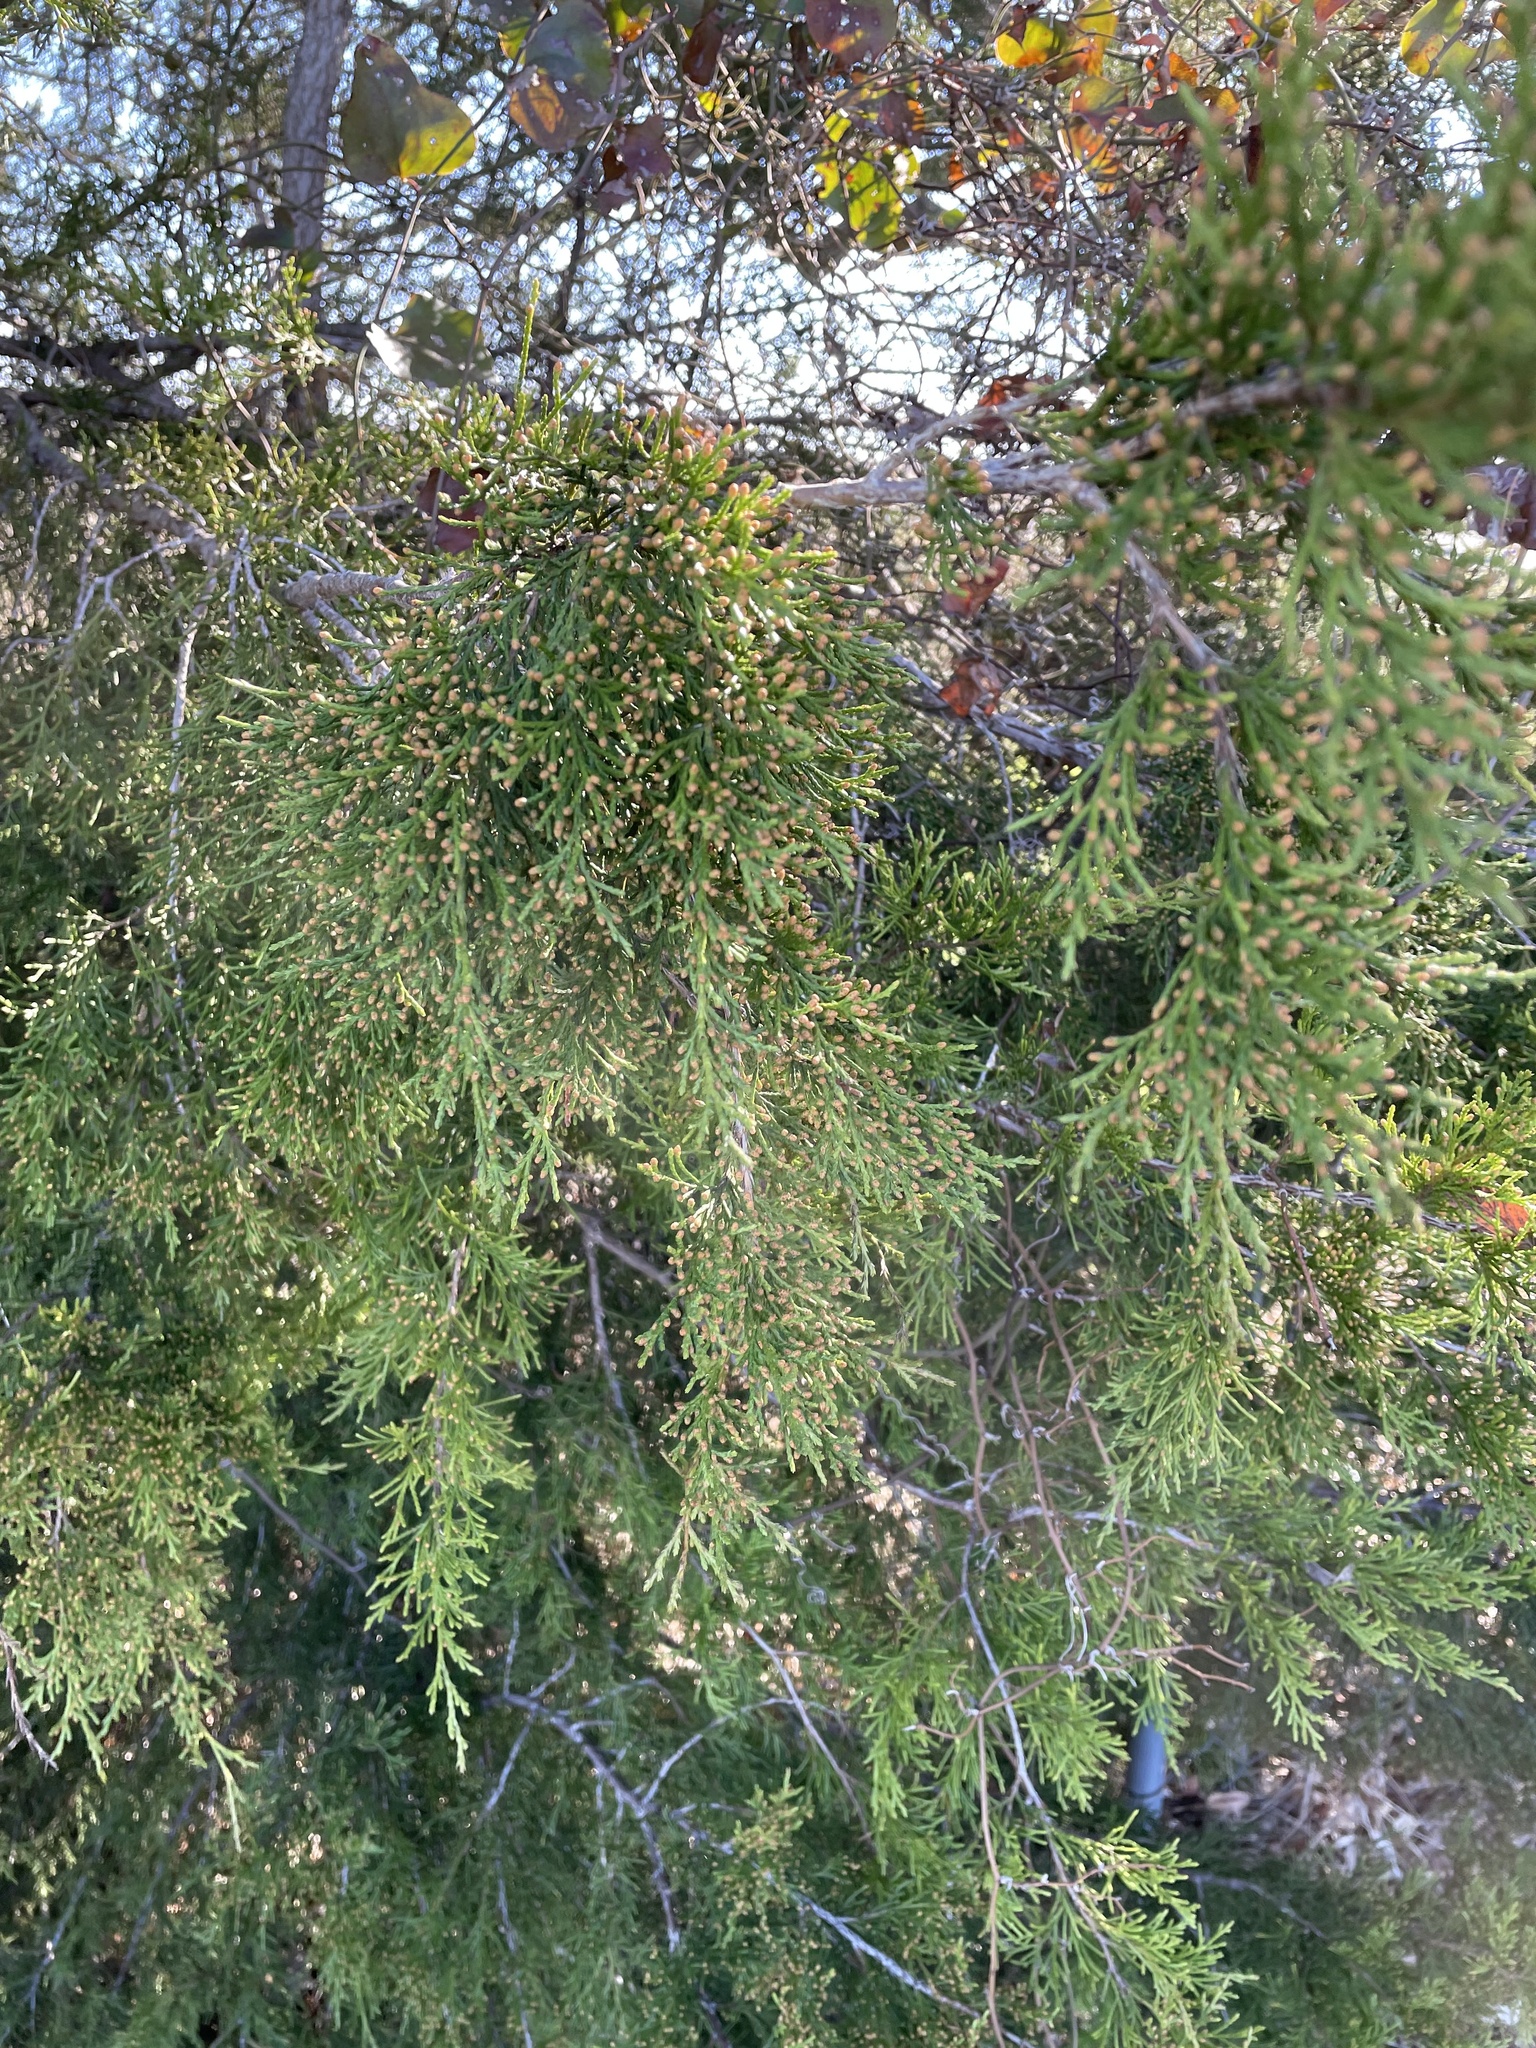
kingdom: Plantae
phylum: Tracheophyta
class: Pinopsida
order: Pinales
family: Cupressaceae
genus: Juniperus
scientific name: Juniperus virginiana
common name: Red juniper
